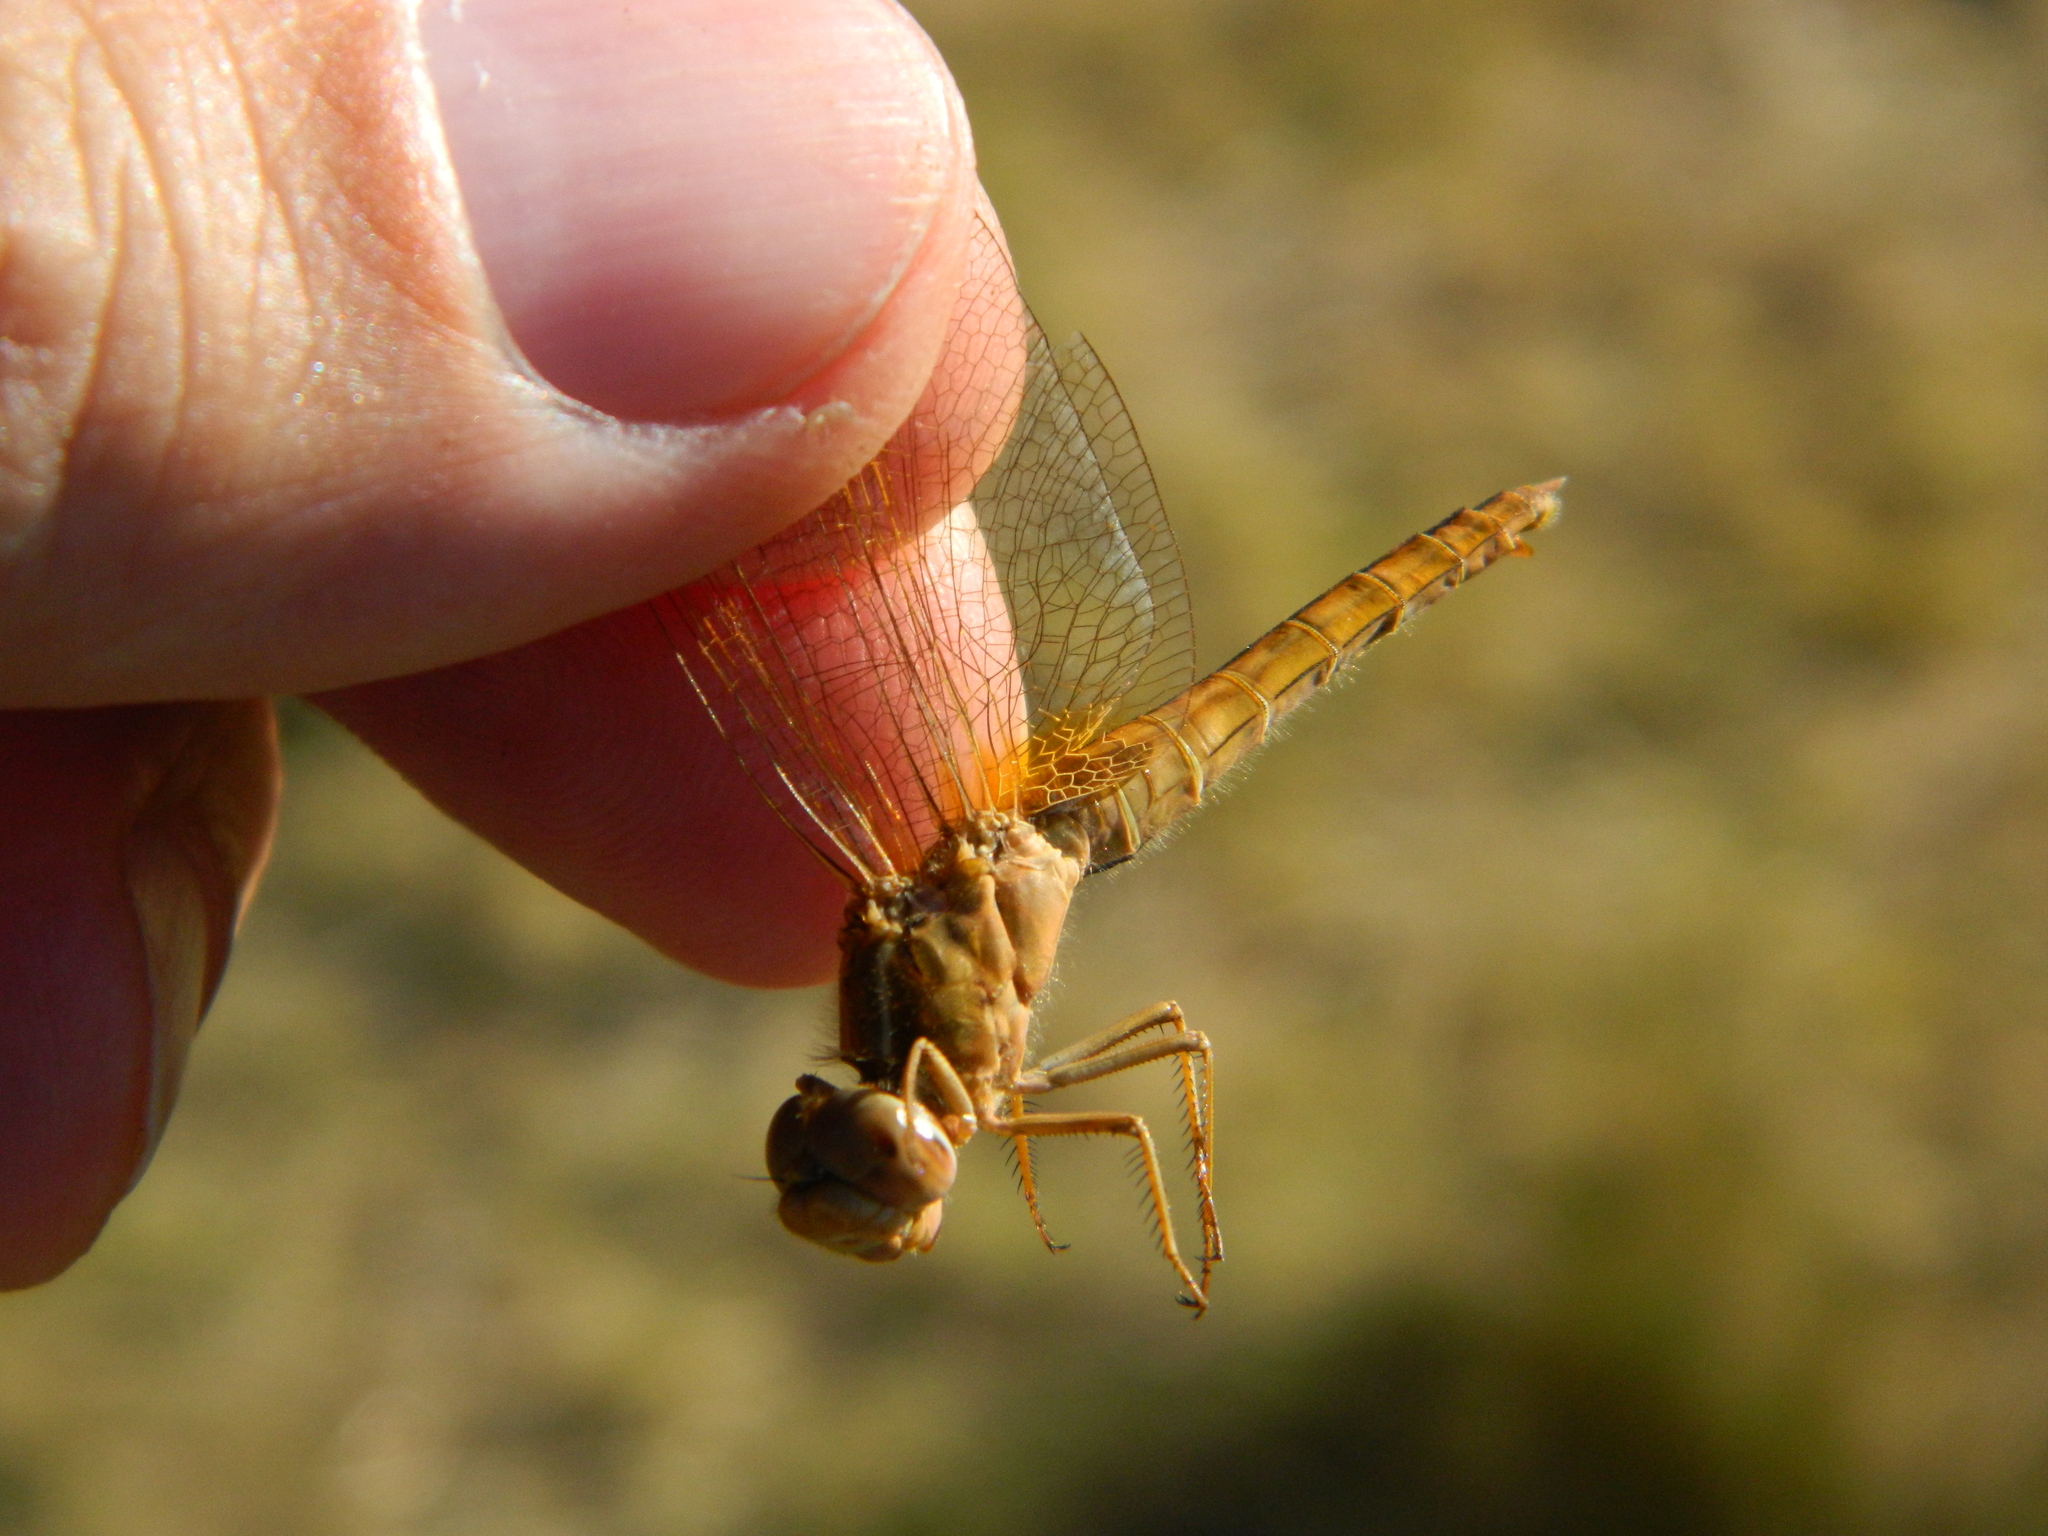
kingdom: Animalia
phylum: Arthropoda
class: Insecta
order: Odonata
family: Libellulidae
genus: Crocothemis
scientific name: Crocothemis erythraea
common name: Scarlet dragonfly
